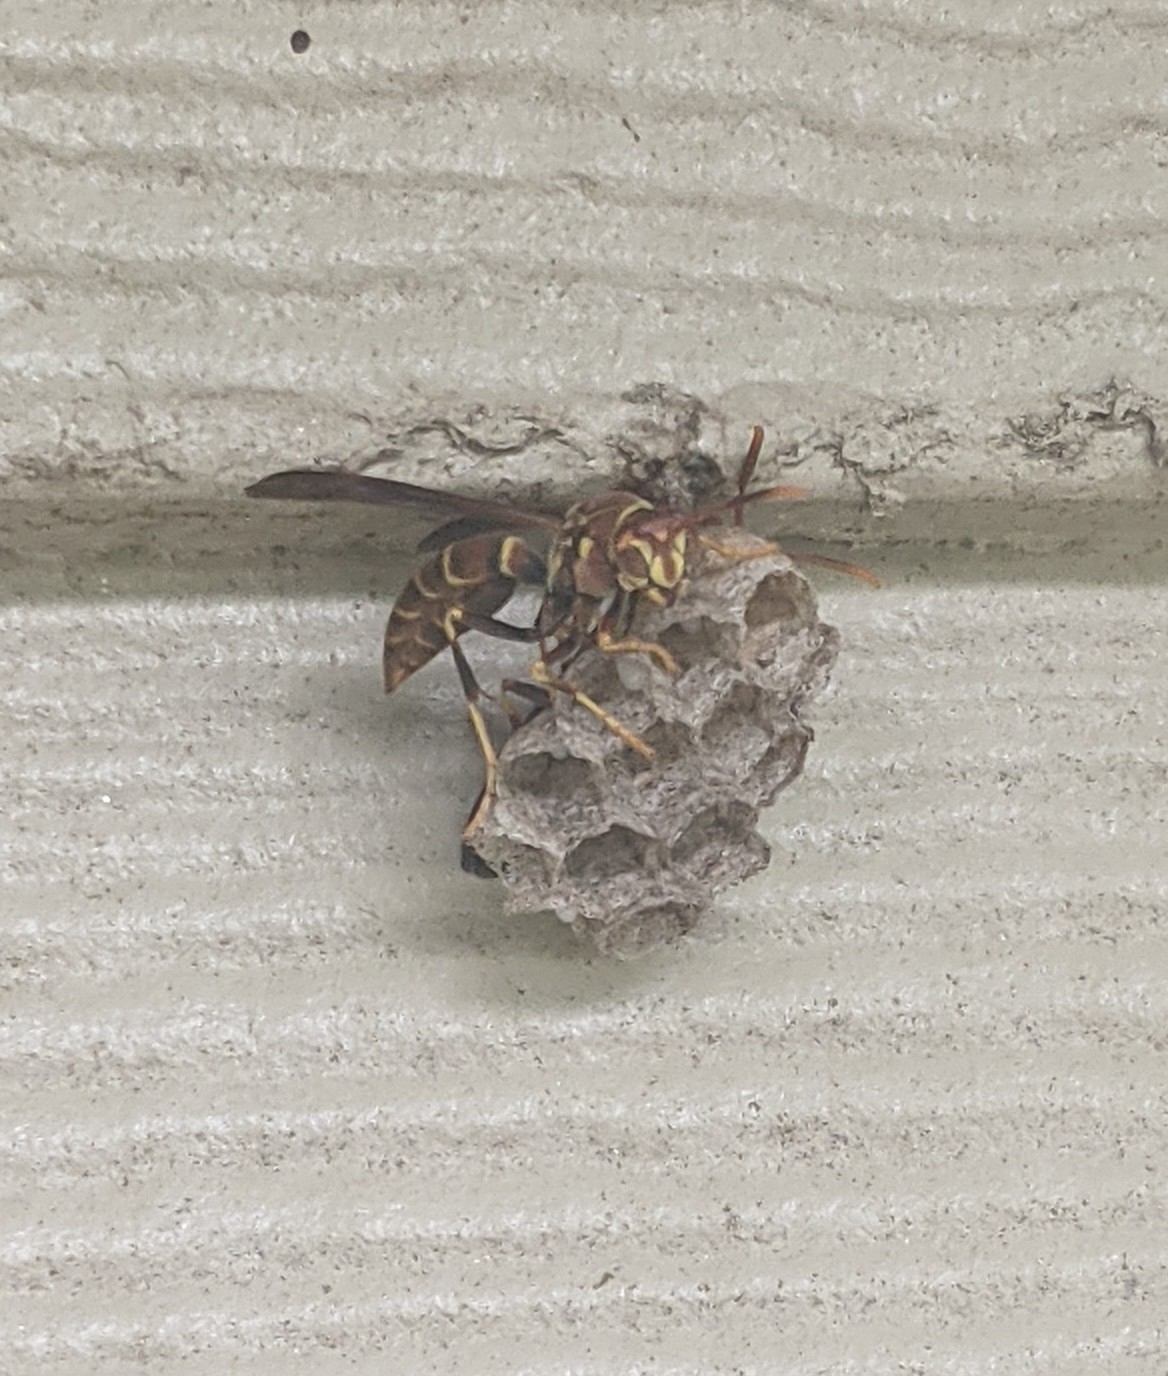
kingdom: Animalia
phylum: Arthropoda
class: Insecta
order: Hymenoptera
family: Eumenidae
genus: Polistes
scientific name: Polistes exclamans
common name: Paper wasp
